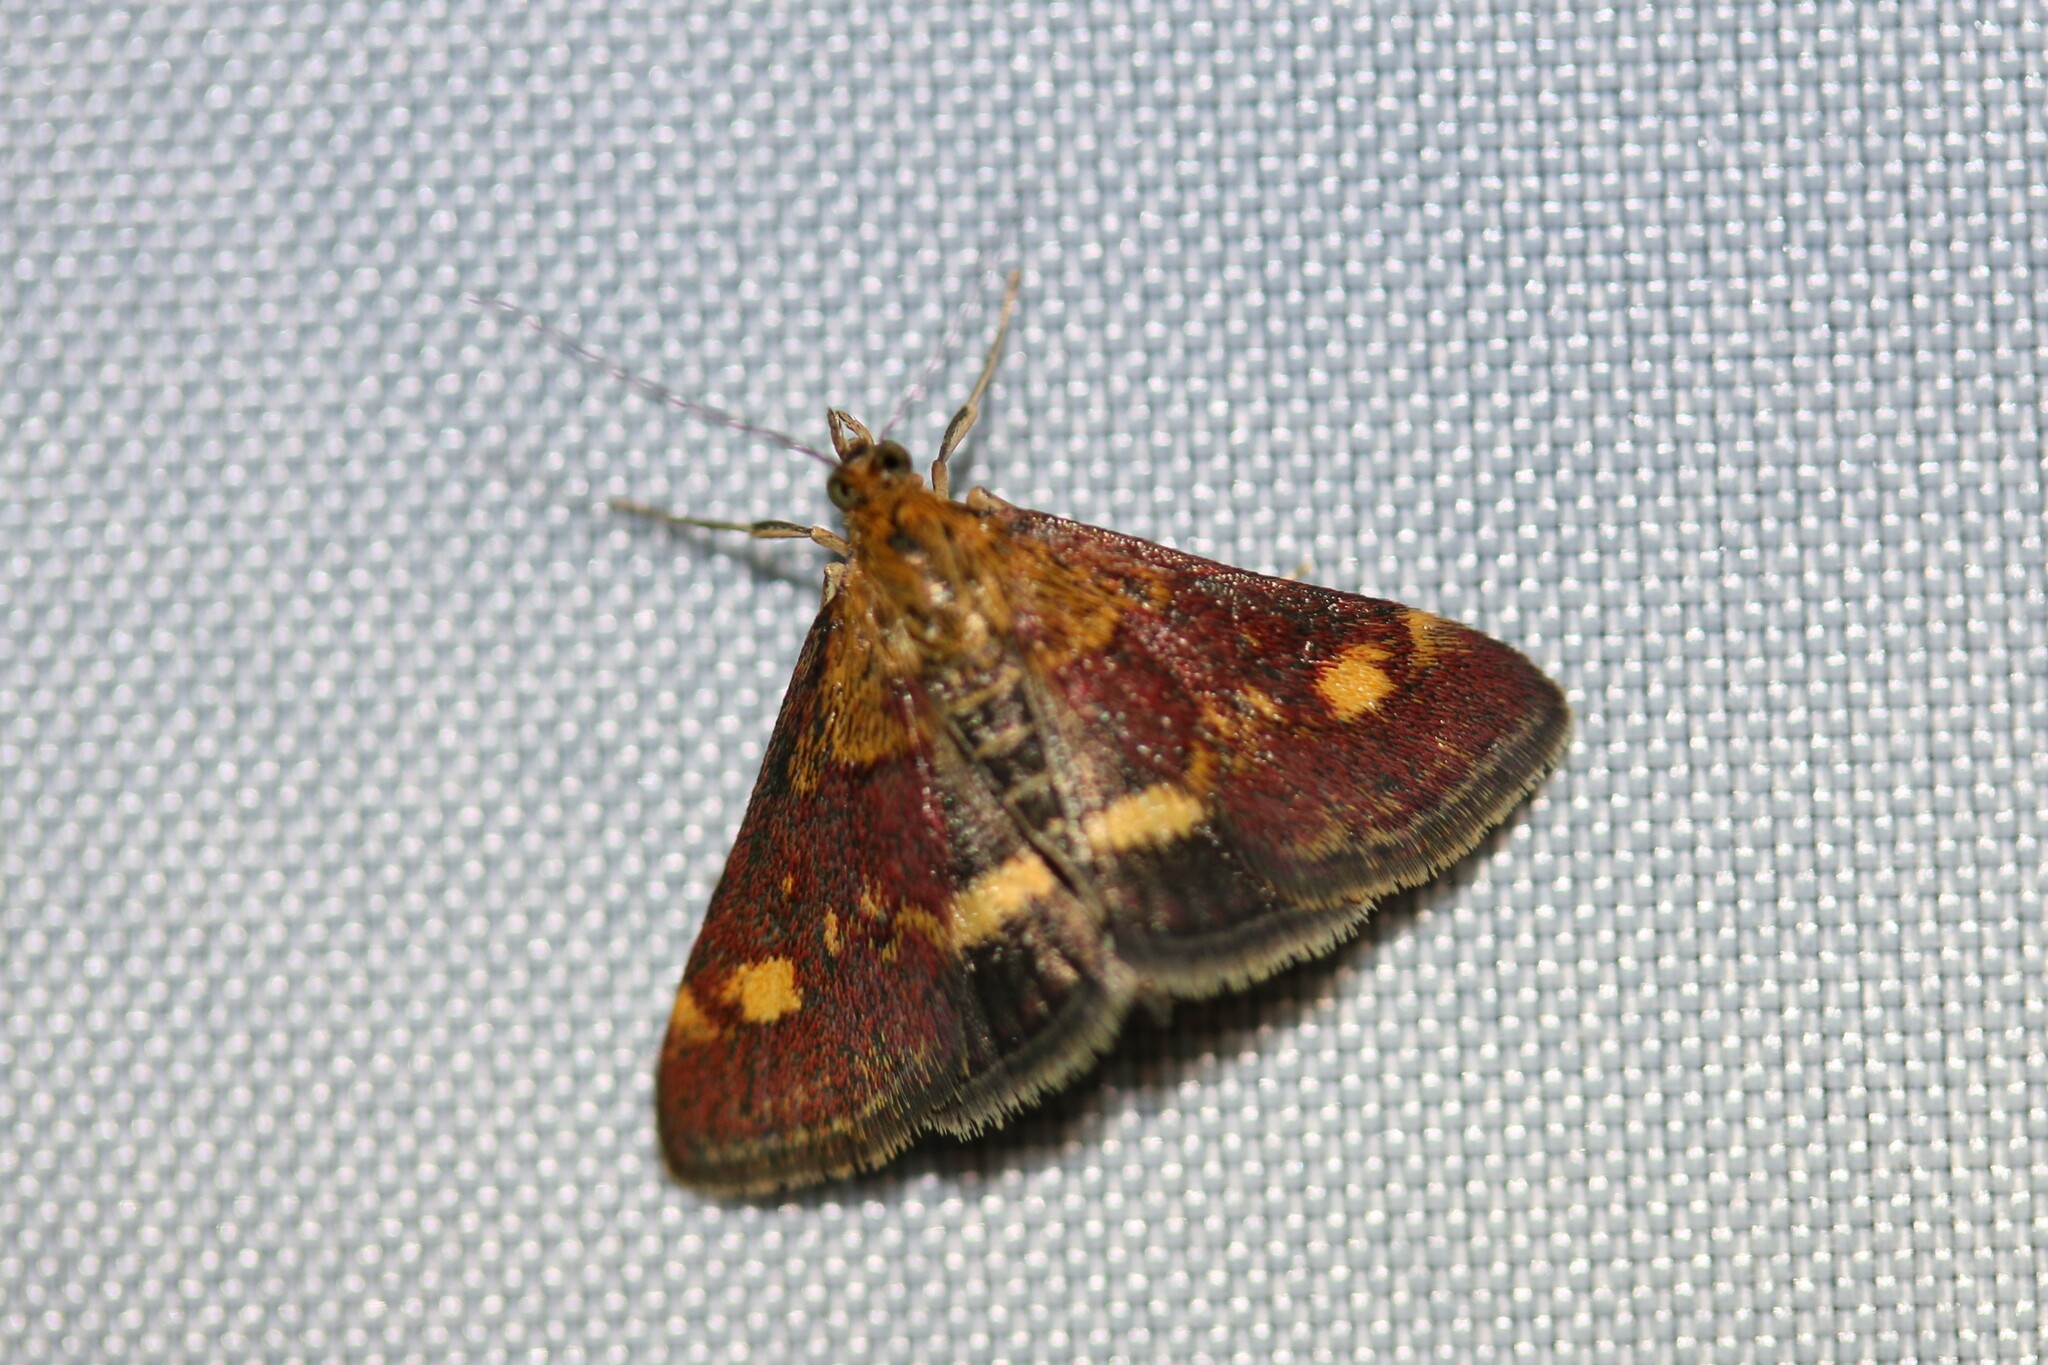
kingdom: Animalia
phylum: Arthropoda
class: Insecta
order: Lepidoptera
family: Crambidae
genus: Pyrausta
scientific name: Pyrausta aurata
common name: Small purple & gold
